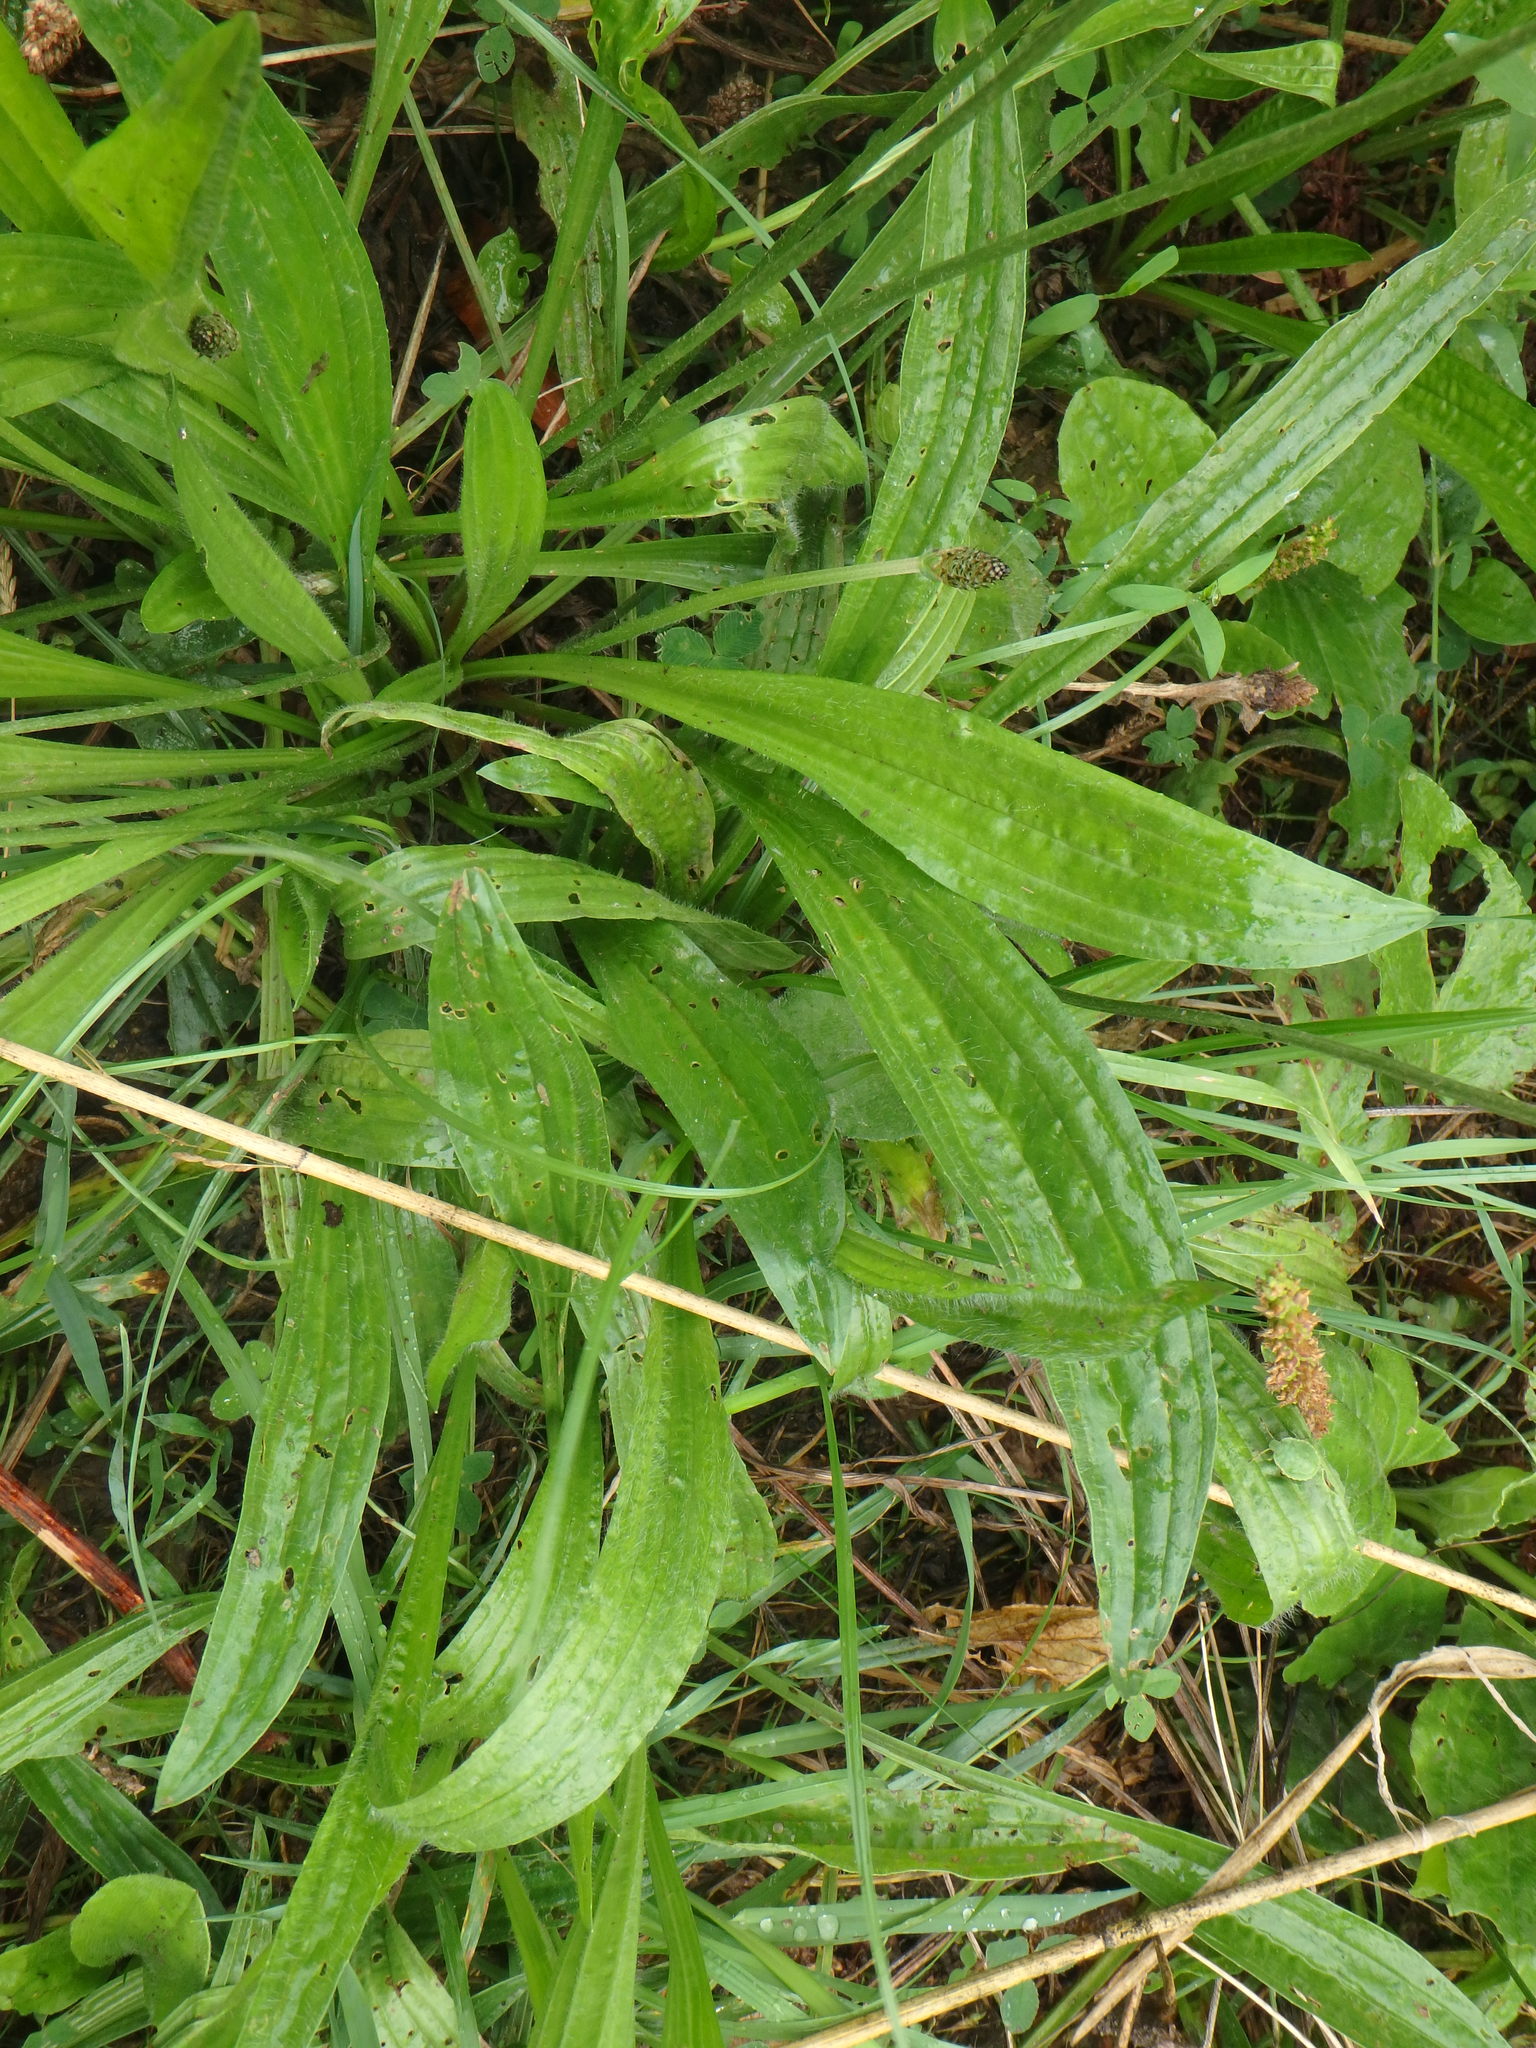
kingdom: Plantae
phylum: Tracheophyta
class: Magnoliopsida
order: Lamiales
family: Plantaginaceae
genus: Plantago
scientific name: Plantago lanceolata
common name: Ribwort plantain
